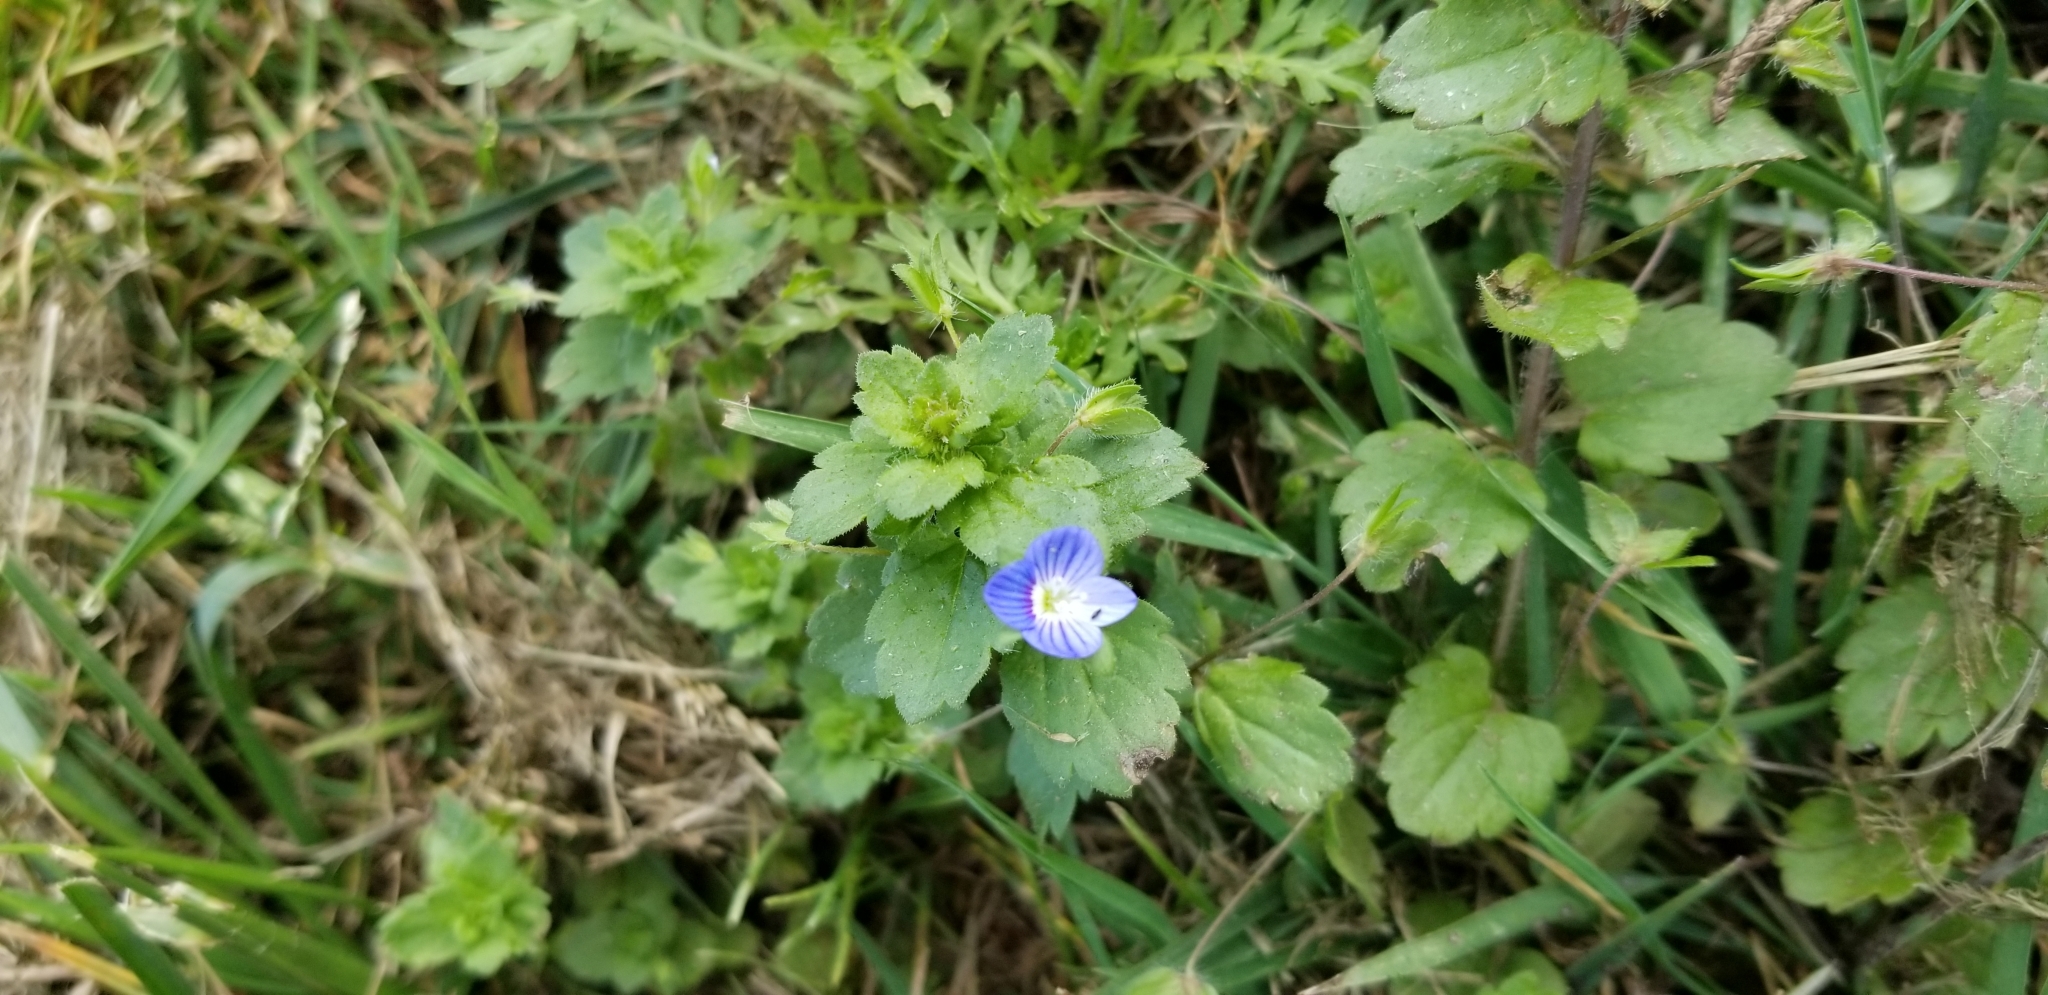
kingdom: Plantae
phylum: Tracheophyta
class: Magnoliopsida
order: Lamiales
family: Plantaginaceae
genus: Veronica
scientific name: Veronica persica
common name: Common field-speedwell
